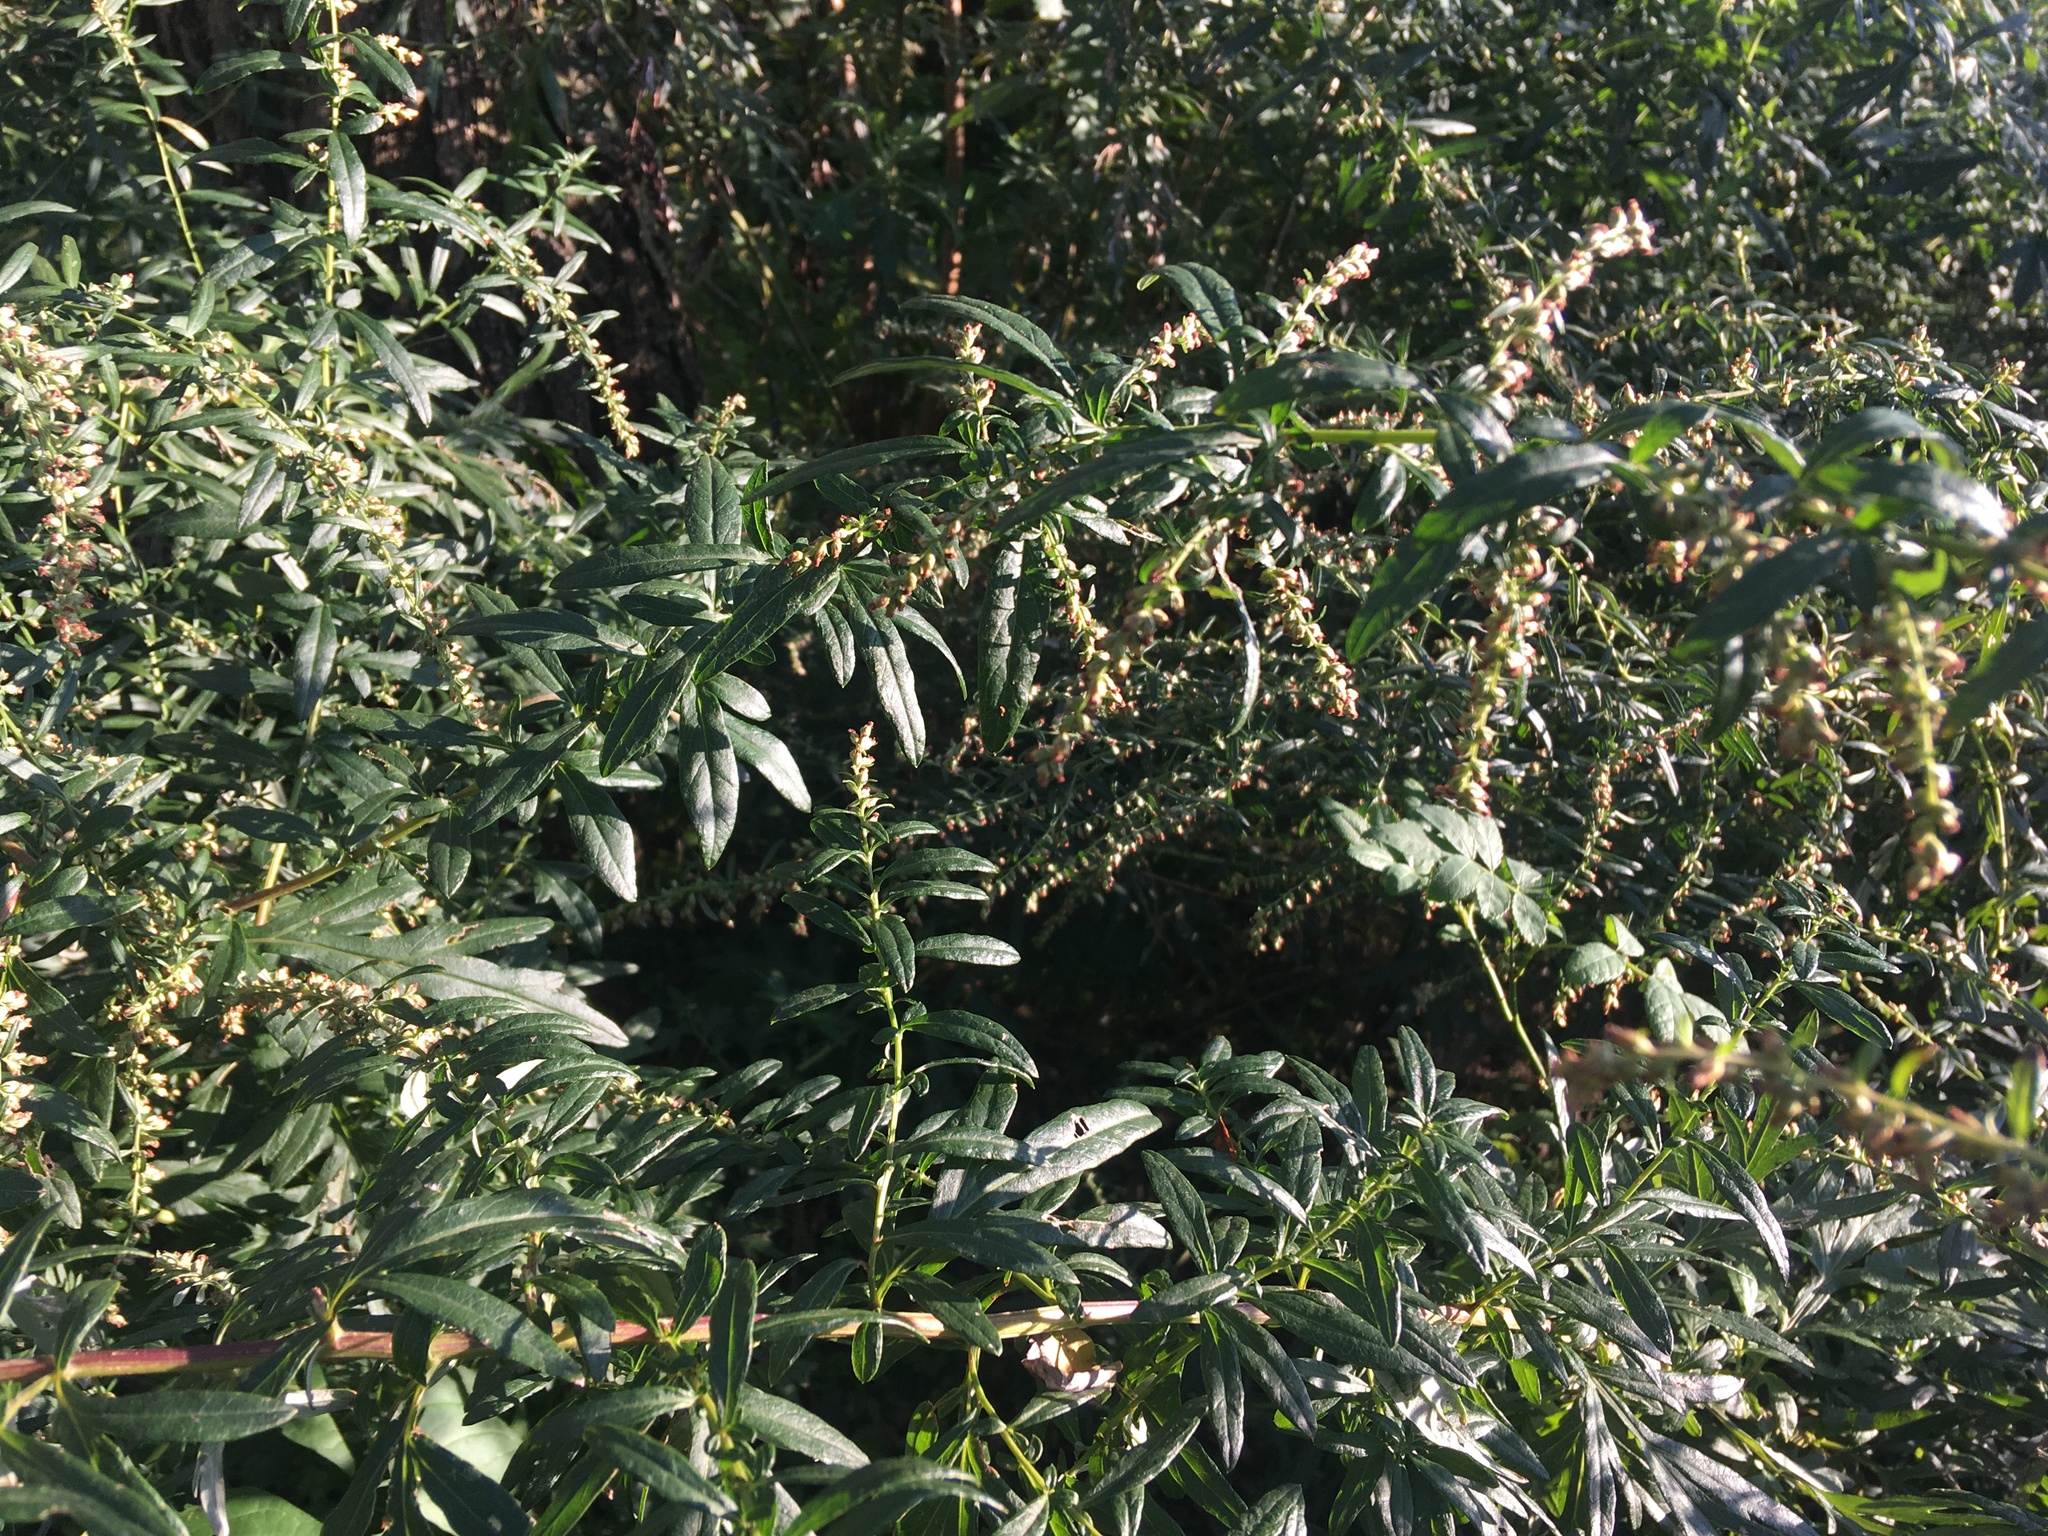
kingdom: Plantae
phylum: Tracheophyta
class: Magnoliopsida
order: Asterales
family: Asteraceae
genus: Artemisia
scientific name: Artemisia vulgaris
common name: Mugwort
